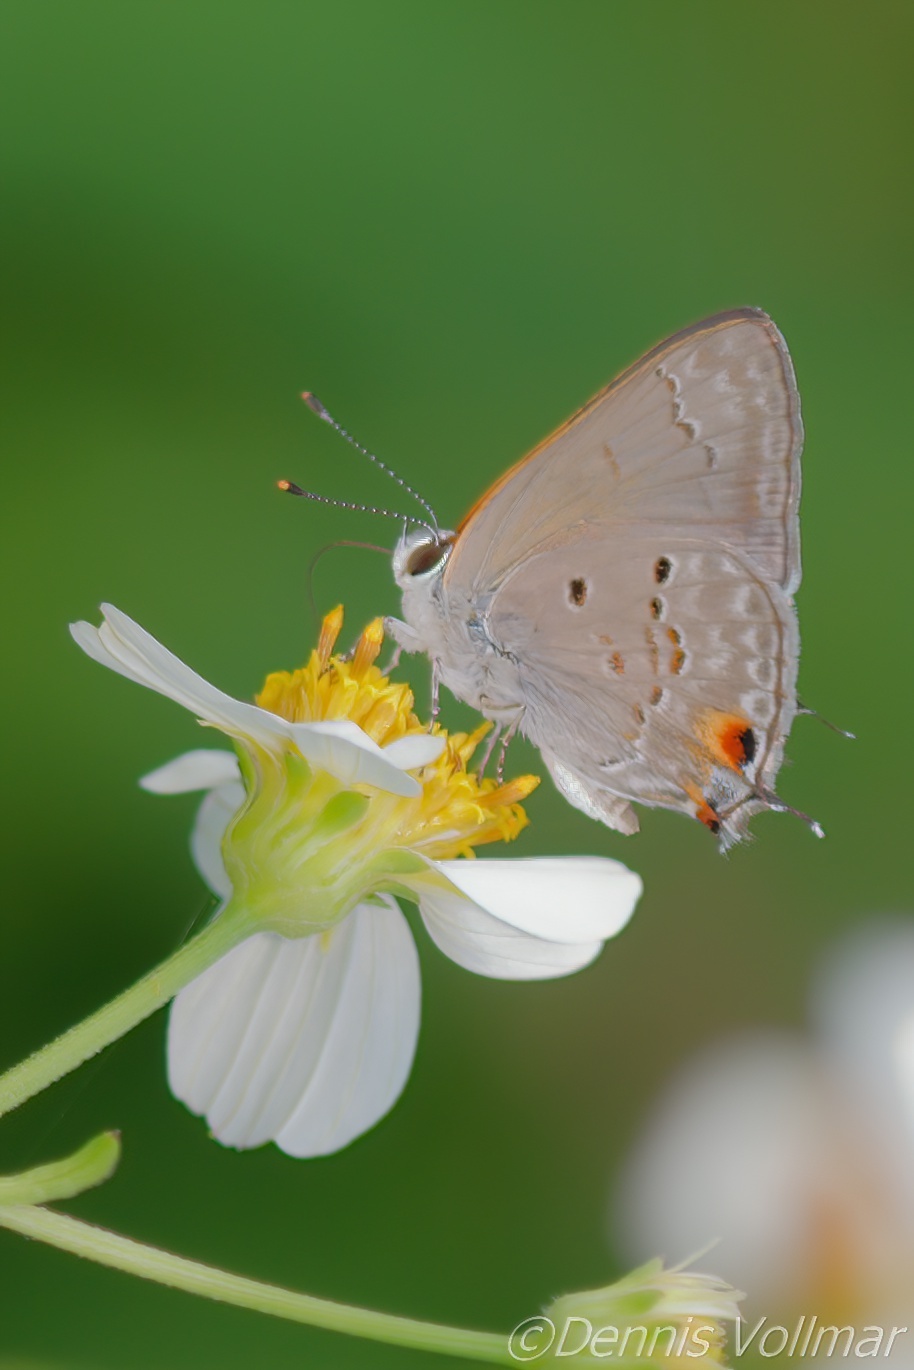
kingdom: Animalia
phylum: Arthropoda
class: Insecta
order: Lepidoptera
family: Lycaenidae
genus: Callicista
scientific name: Callicista columella
